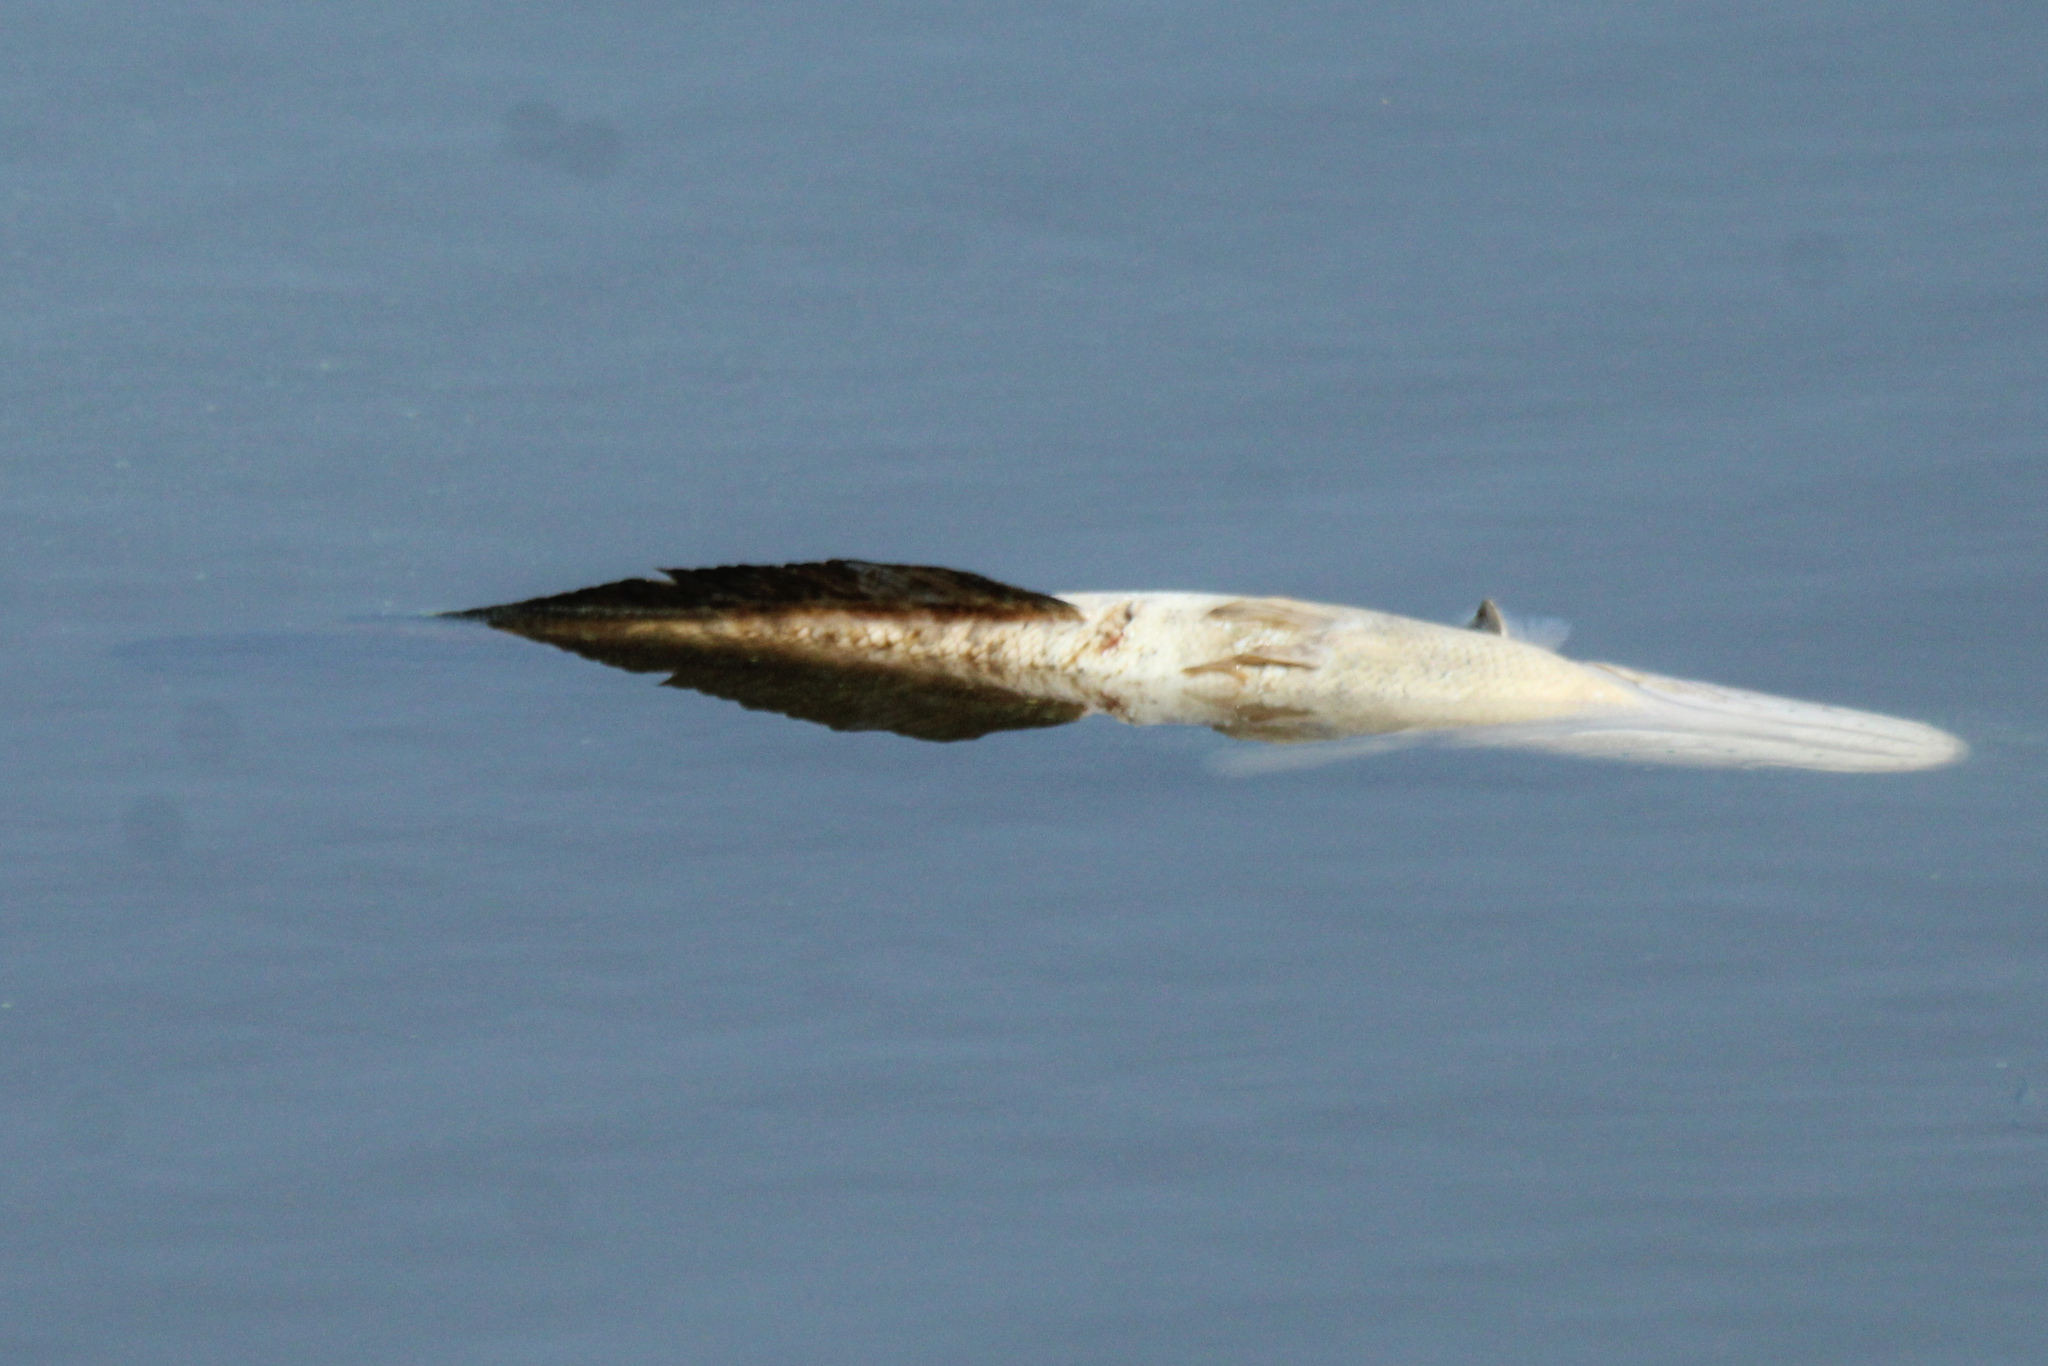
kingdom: Animalia
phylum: Chordata
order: Perciformes
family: Channidae
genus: Channa
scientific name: Channa argus
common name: Northern snakehead
